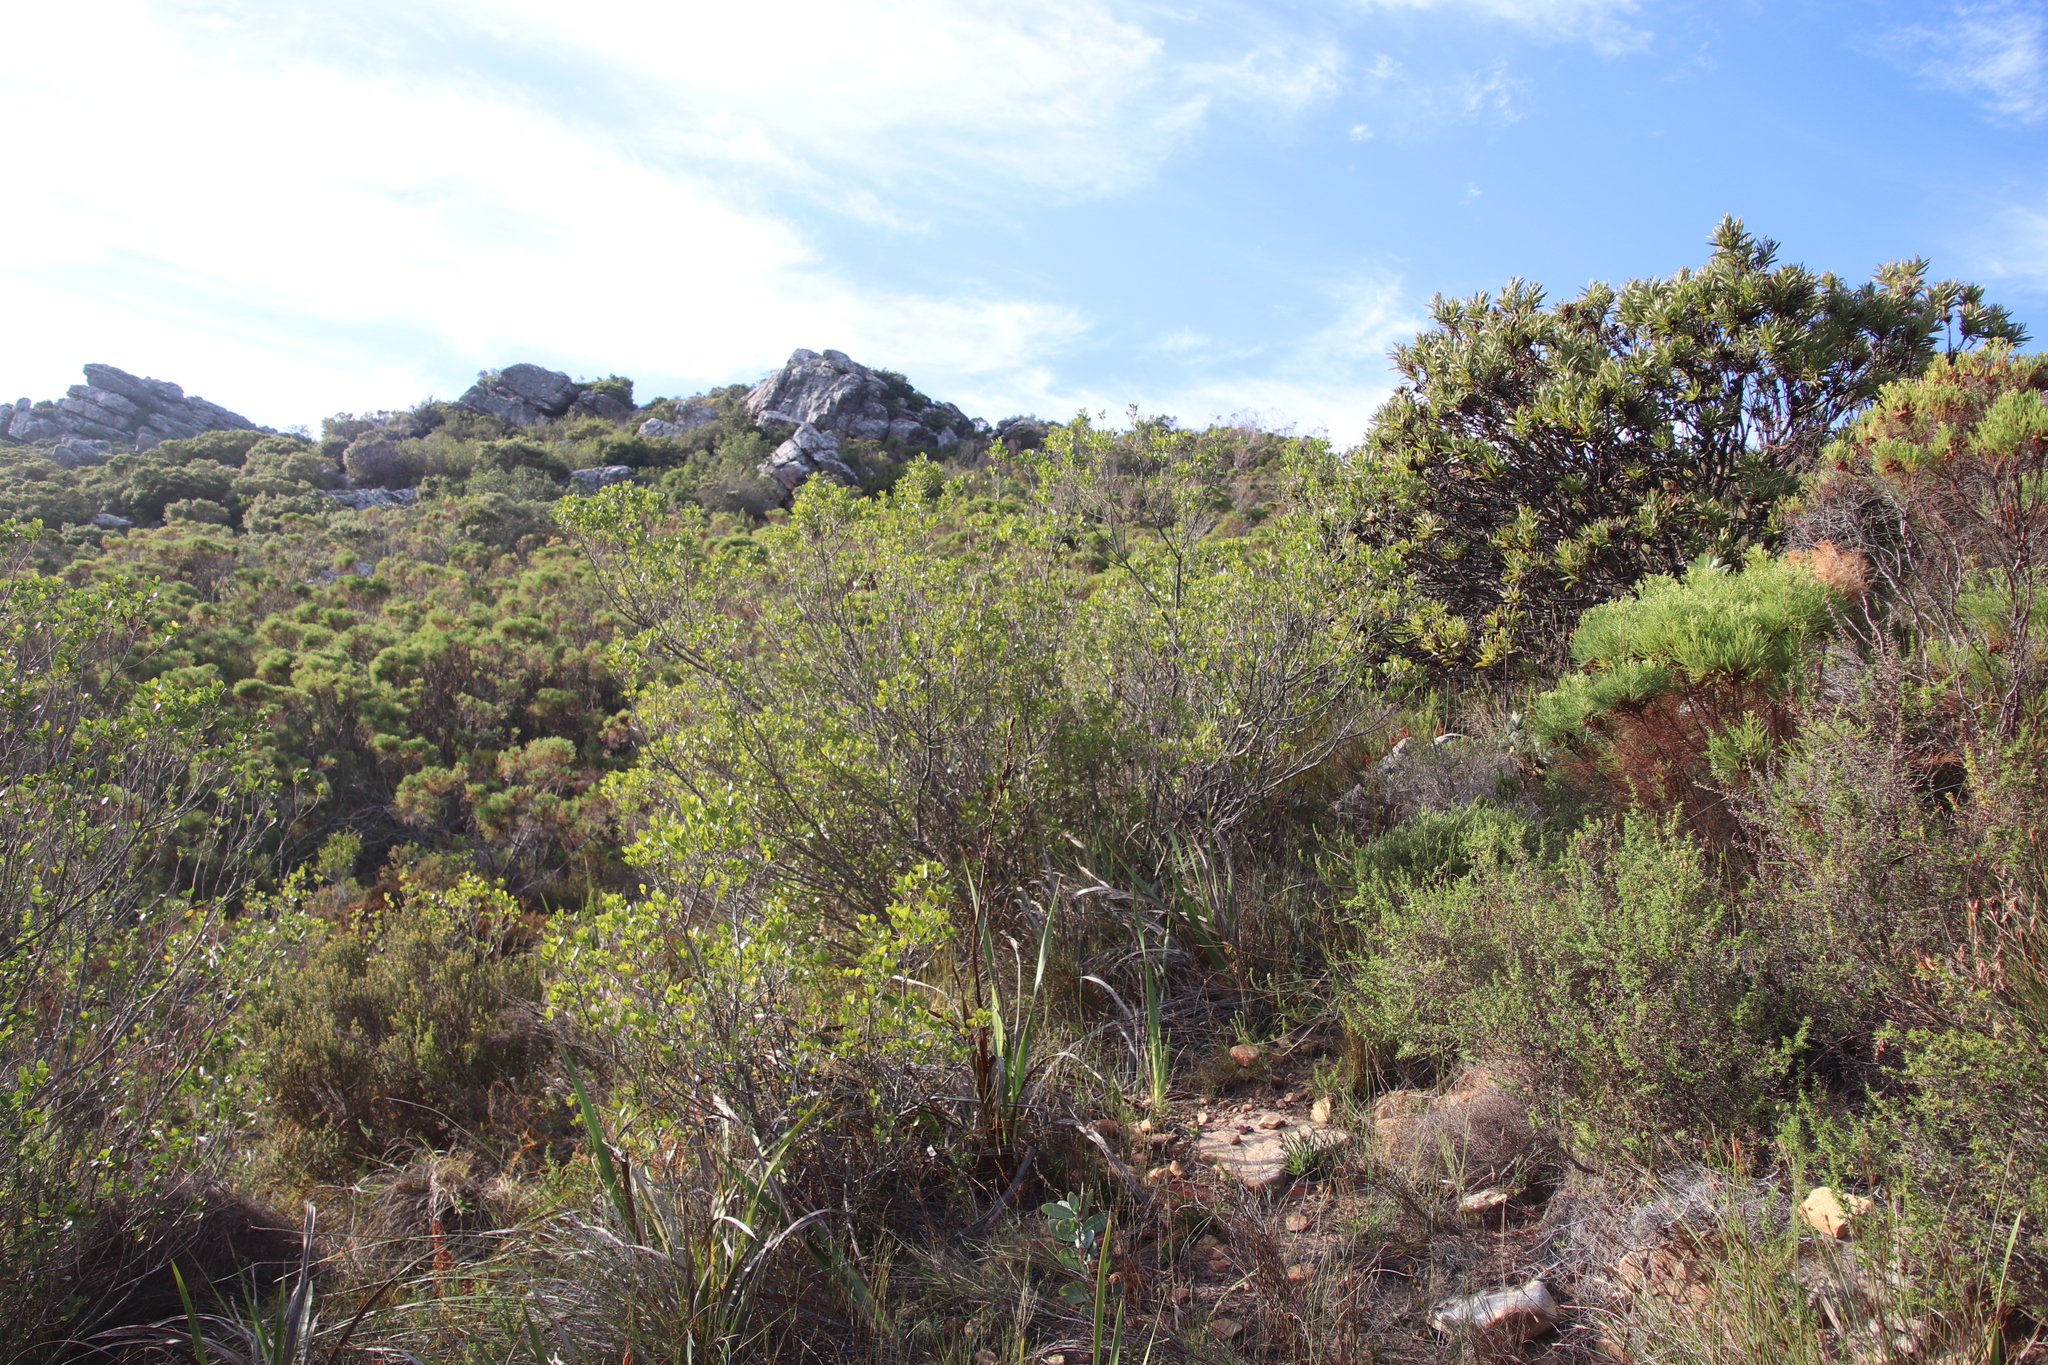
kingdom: Plantae
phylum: Tracheophyta
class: Magnoliopsida
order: Sapindales
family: Anacardiaceae
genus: Searsia
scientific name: Searsia lucida
